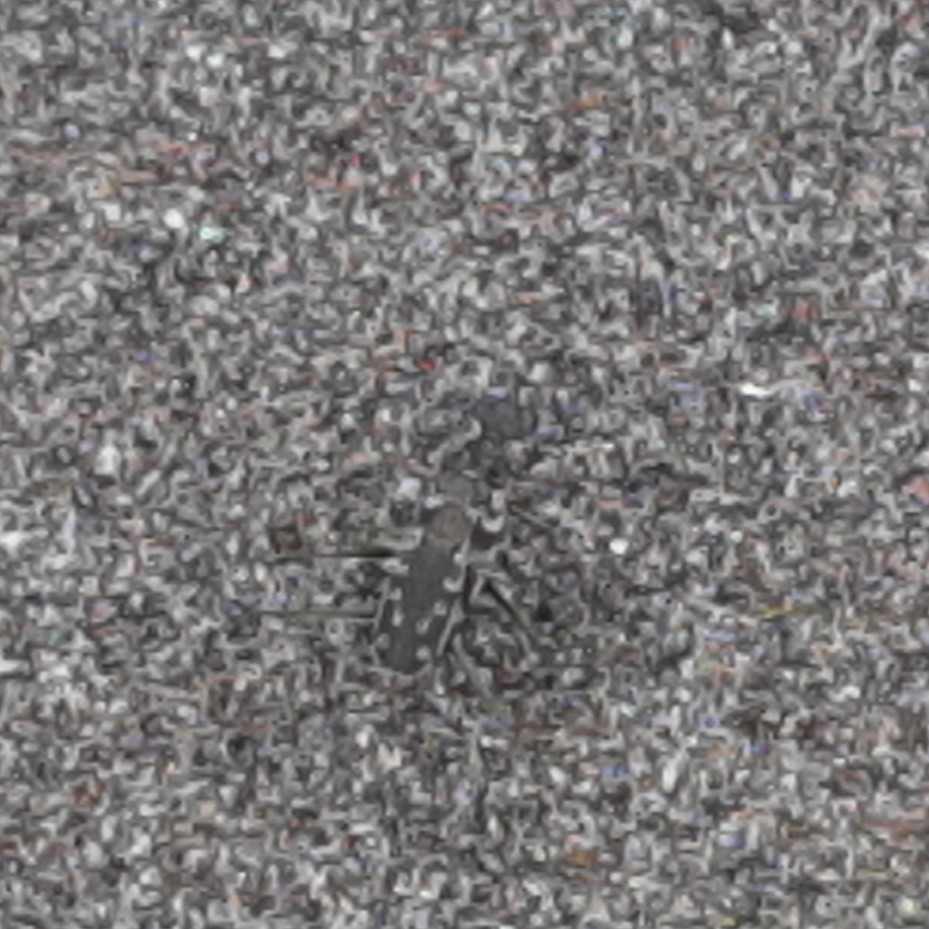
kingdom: Animalia
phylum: Arthropoda
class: Insecta
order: Coleoptera
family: Carabidae
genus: Opilidia
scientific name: Opilidia macrocnema
